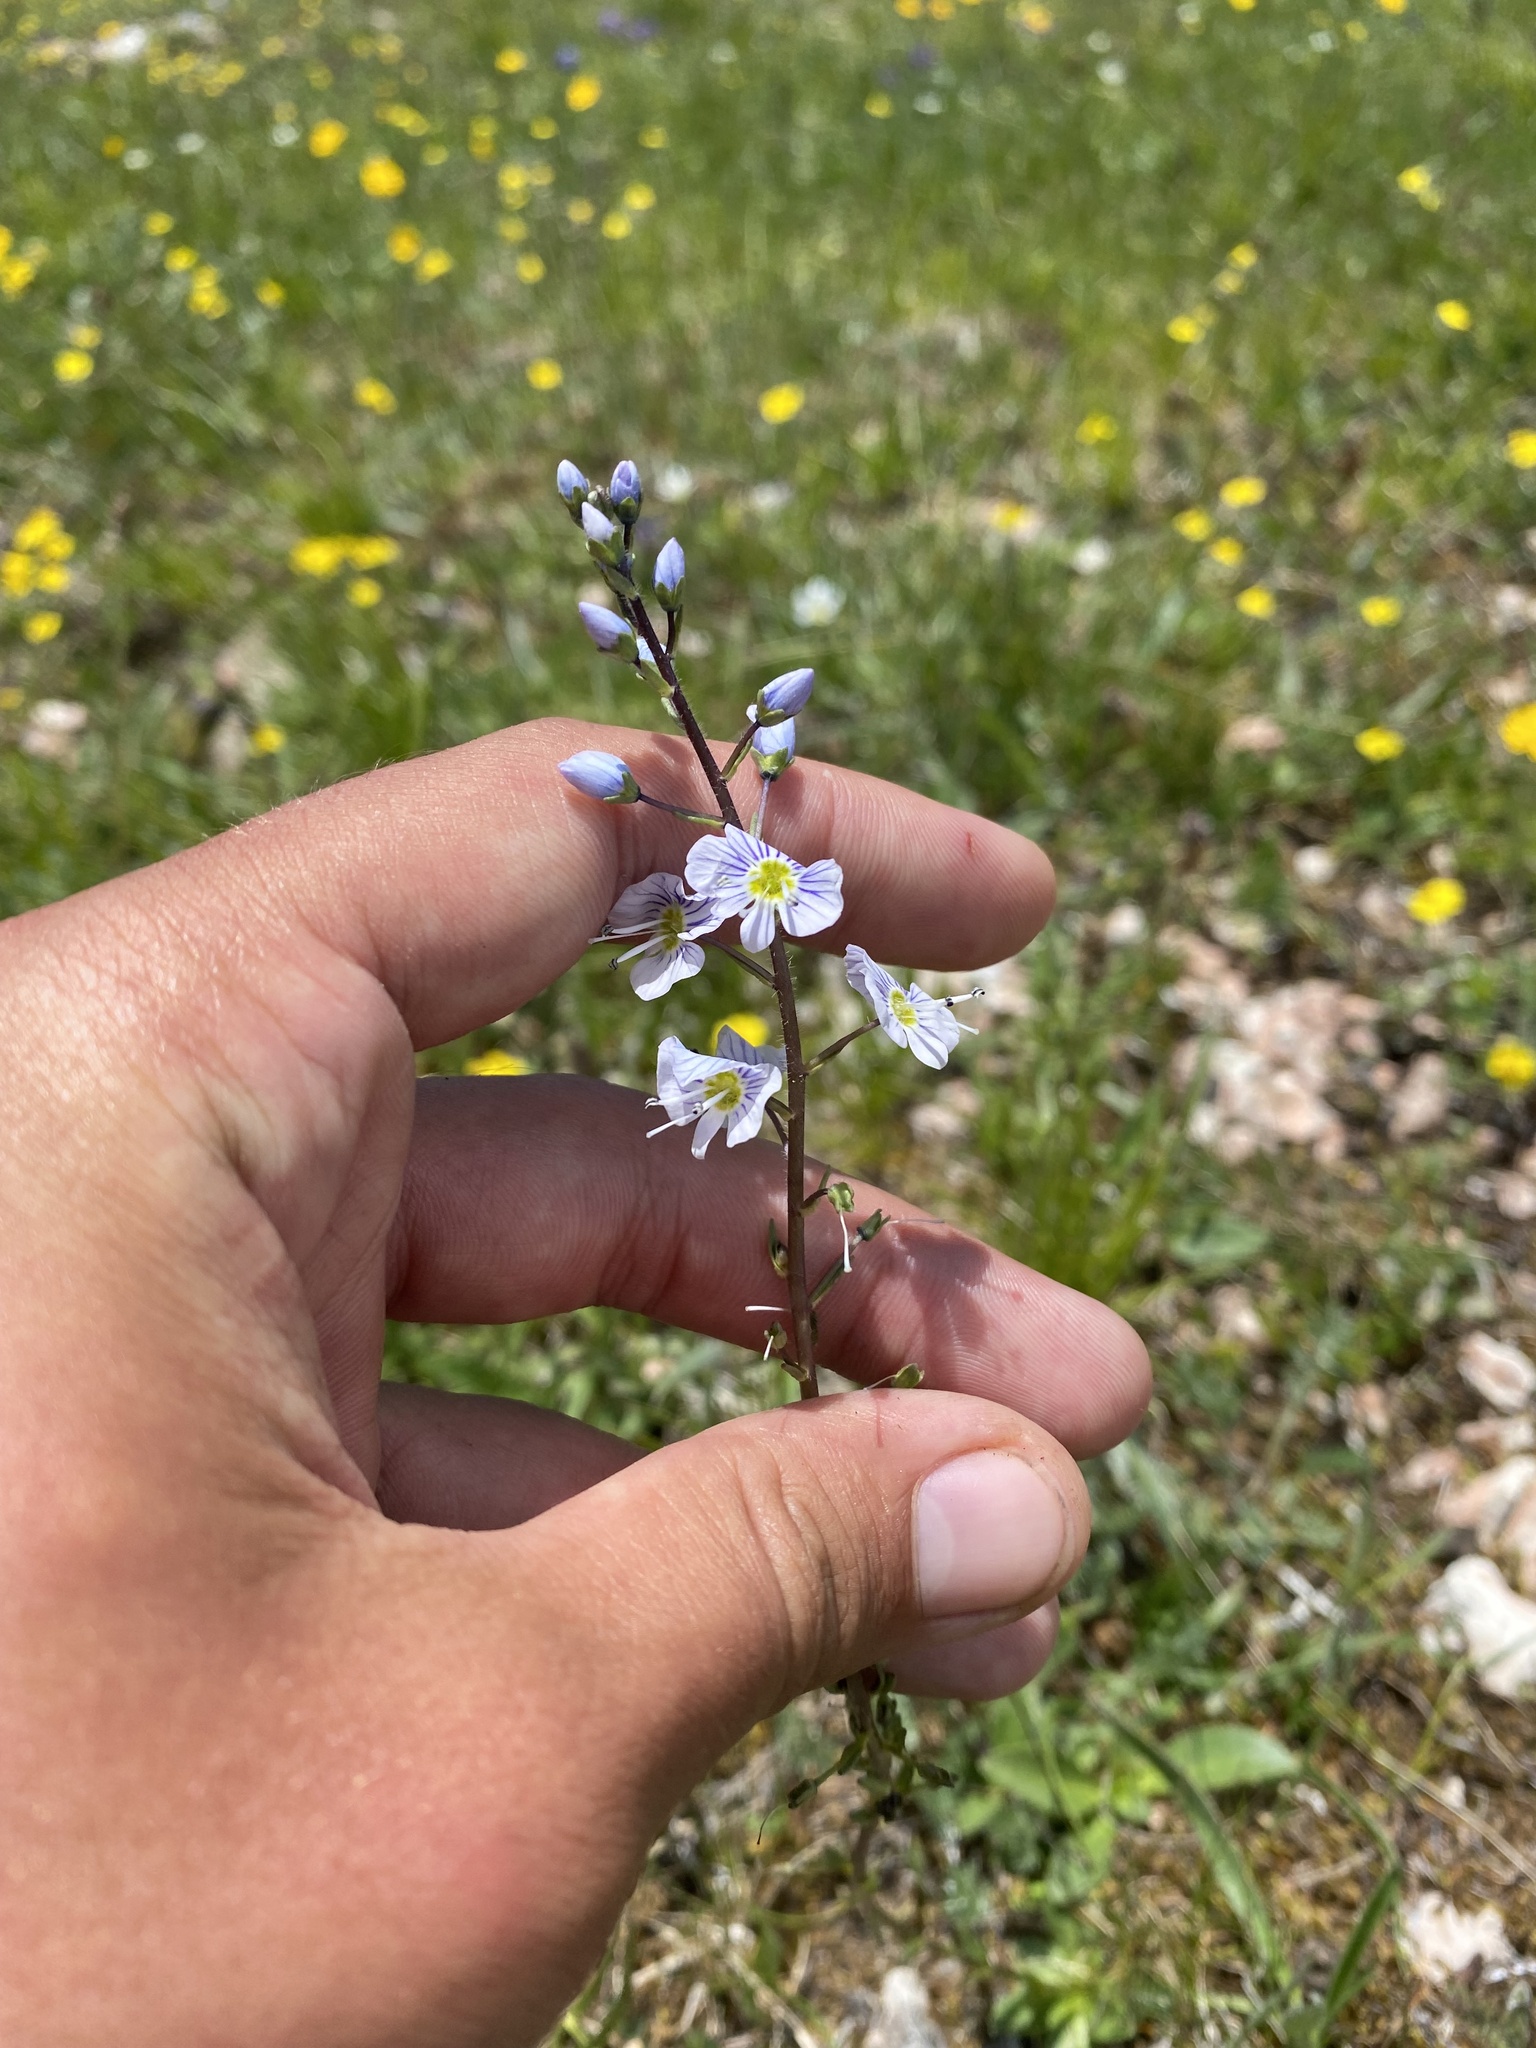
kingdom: Plantae
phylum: Tracheophyta
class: Magnoliopsida
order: Lamiales
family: Plantaginaceae
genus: Veronica
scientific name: Veronica gentianoides
